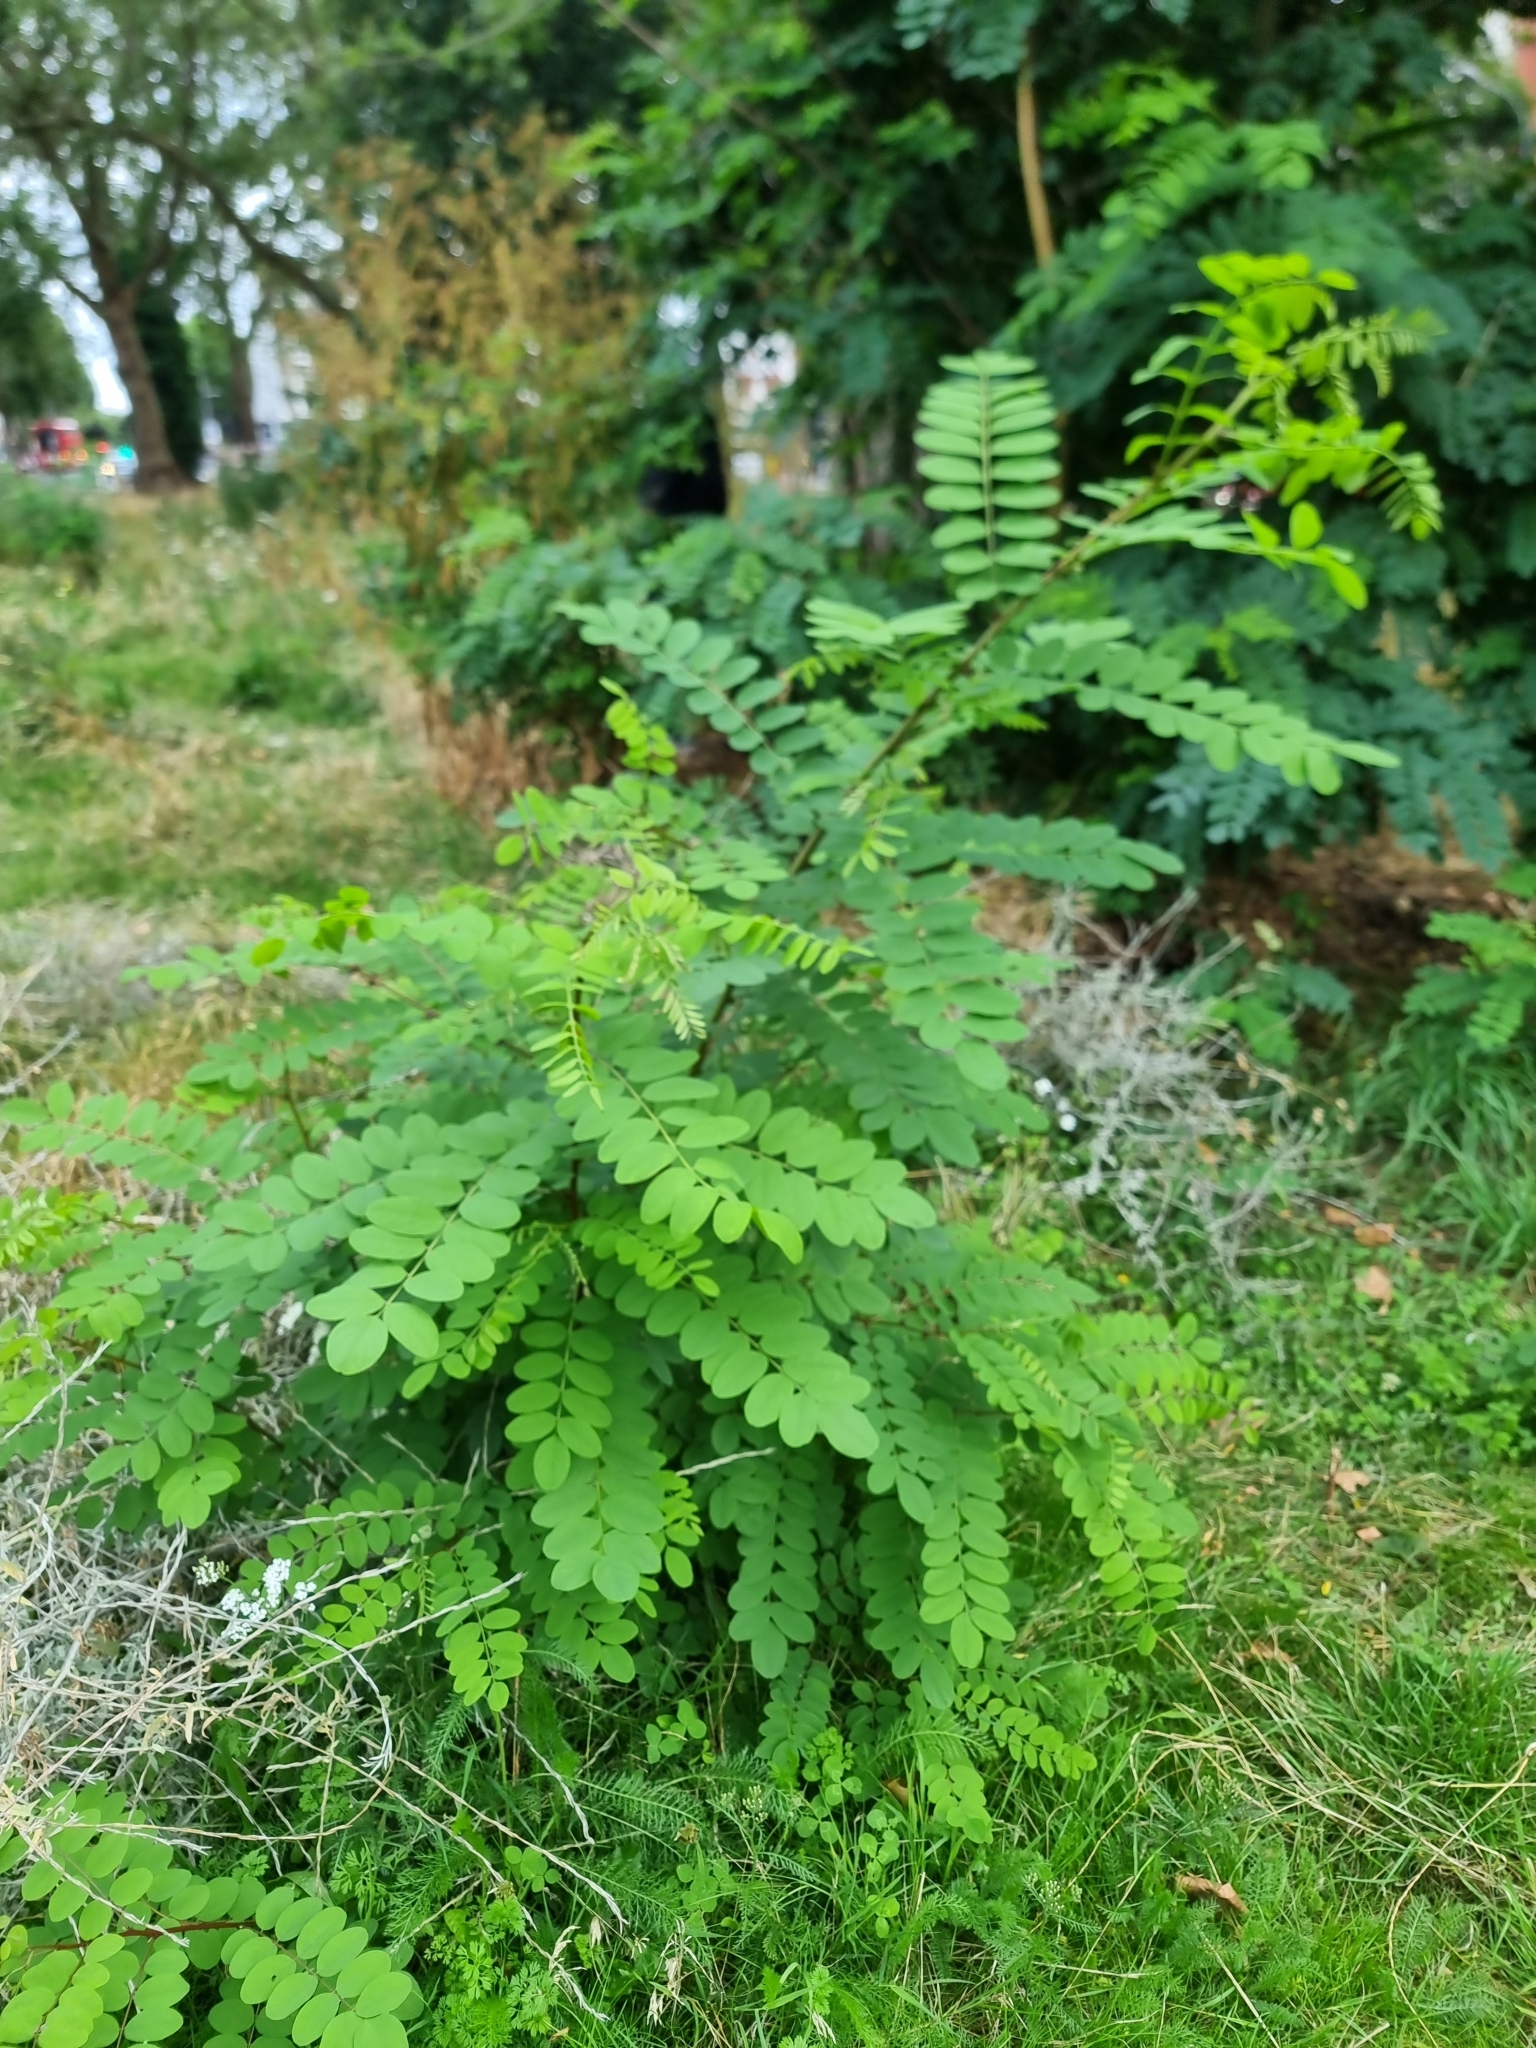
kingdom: Plantae
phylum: Tracheophyta
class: Magnoliopsida
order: Fabales
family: Fabaceae
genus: Robinia
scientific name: Robinia pseudoacacia
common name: Black locust
